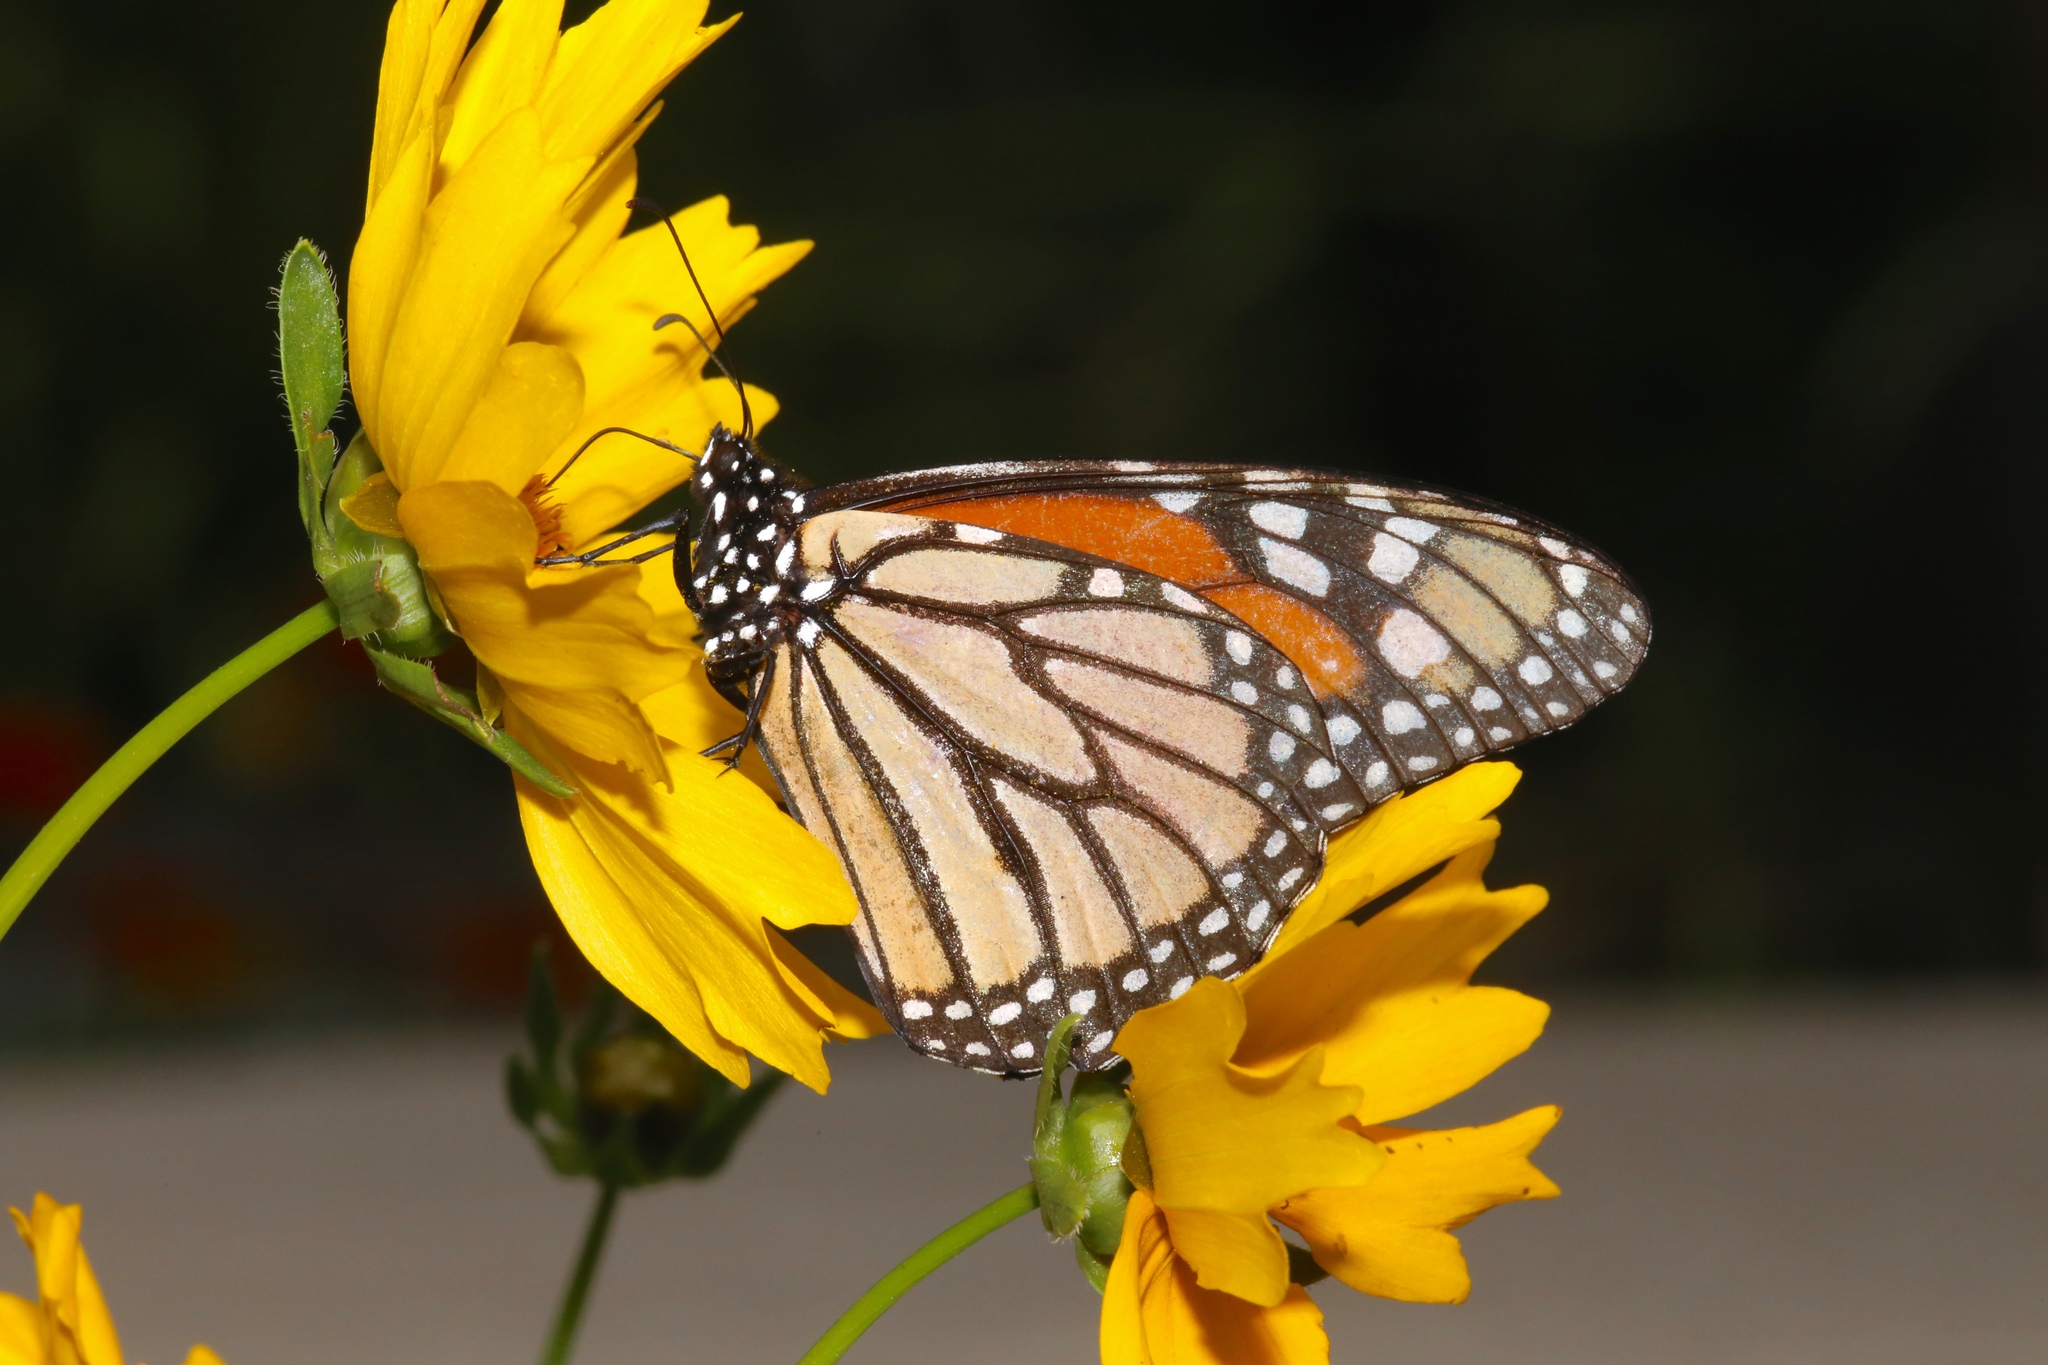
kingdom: Animalia
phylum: Arthropoda
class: Insecta
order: Lepidoptera
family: Nymphalidae
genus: Danaus
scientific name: Danaus plexippus
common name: Monarch
